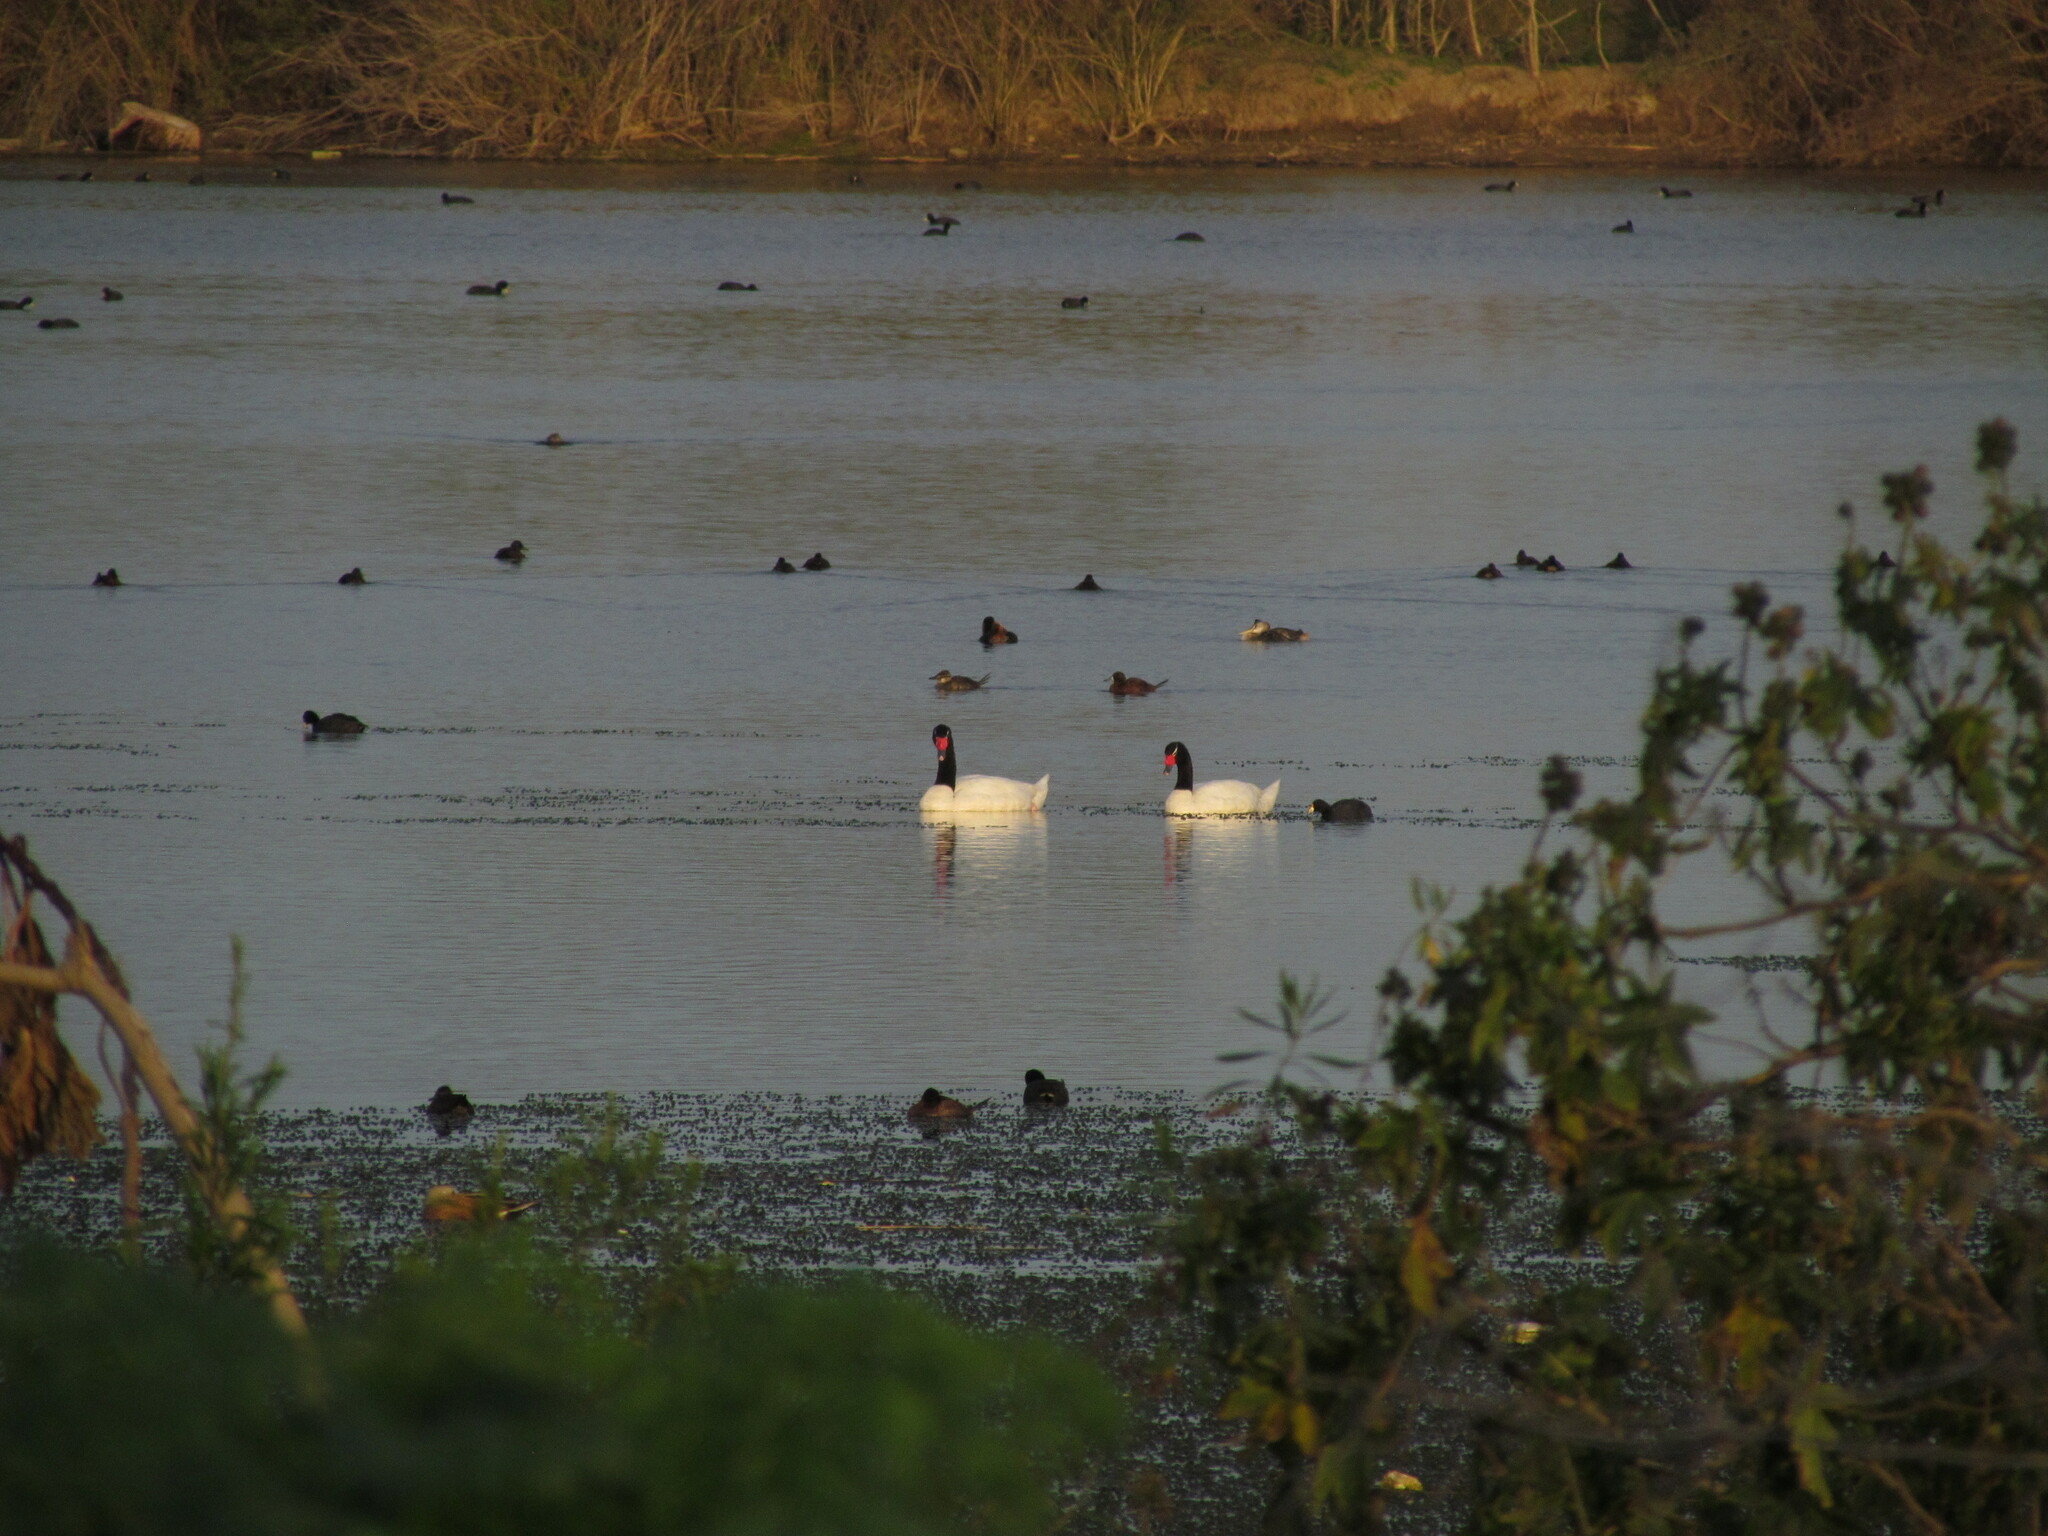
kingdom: Animalia
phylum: Chordata
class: Aves
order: Anseriformes
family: Anatidae
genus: Cygnus
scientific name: Cygnus melancoryphus
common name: Black-necked swan
